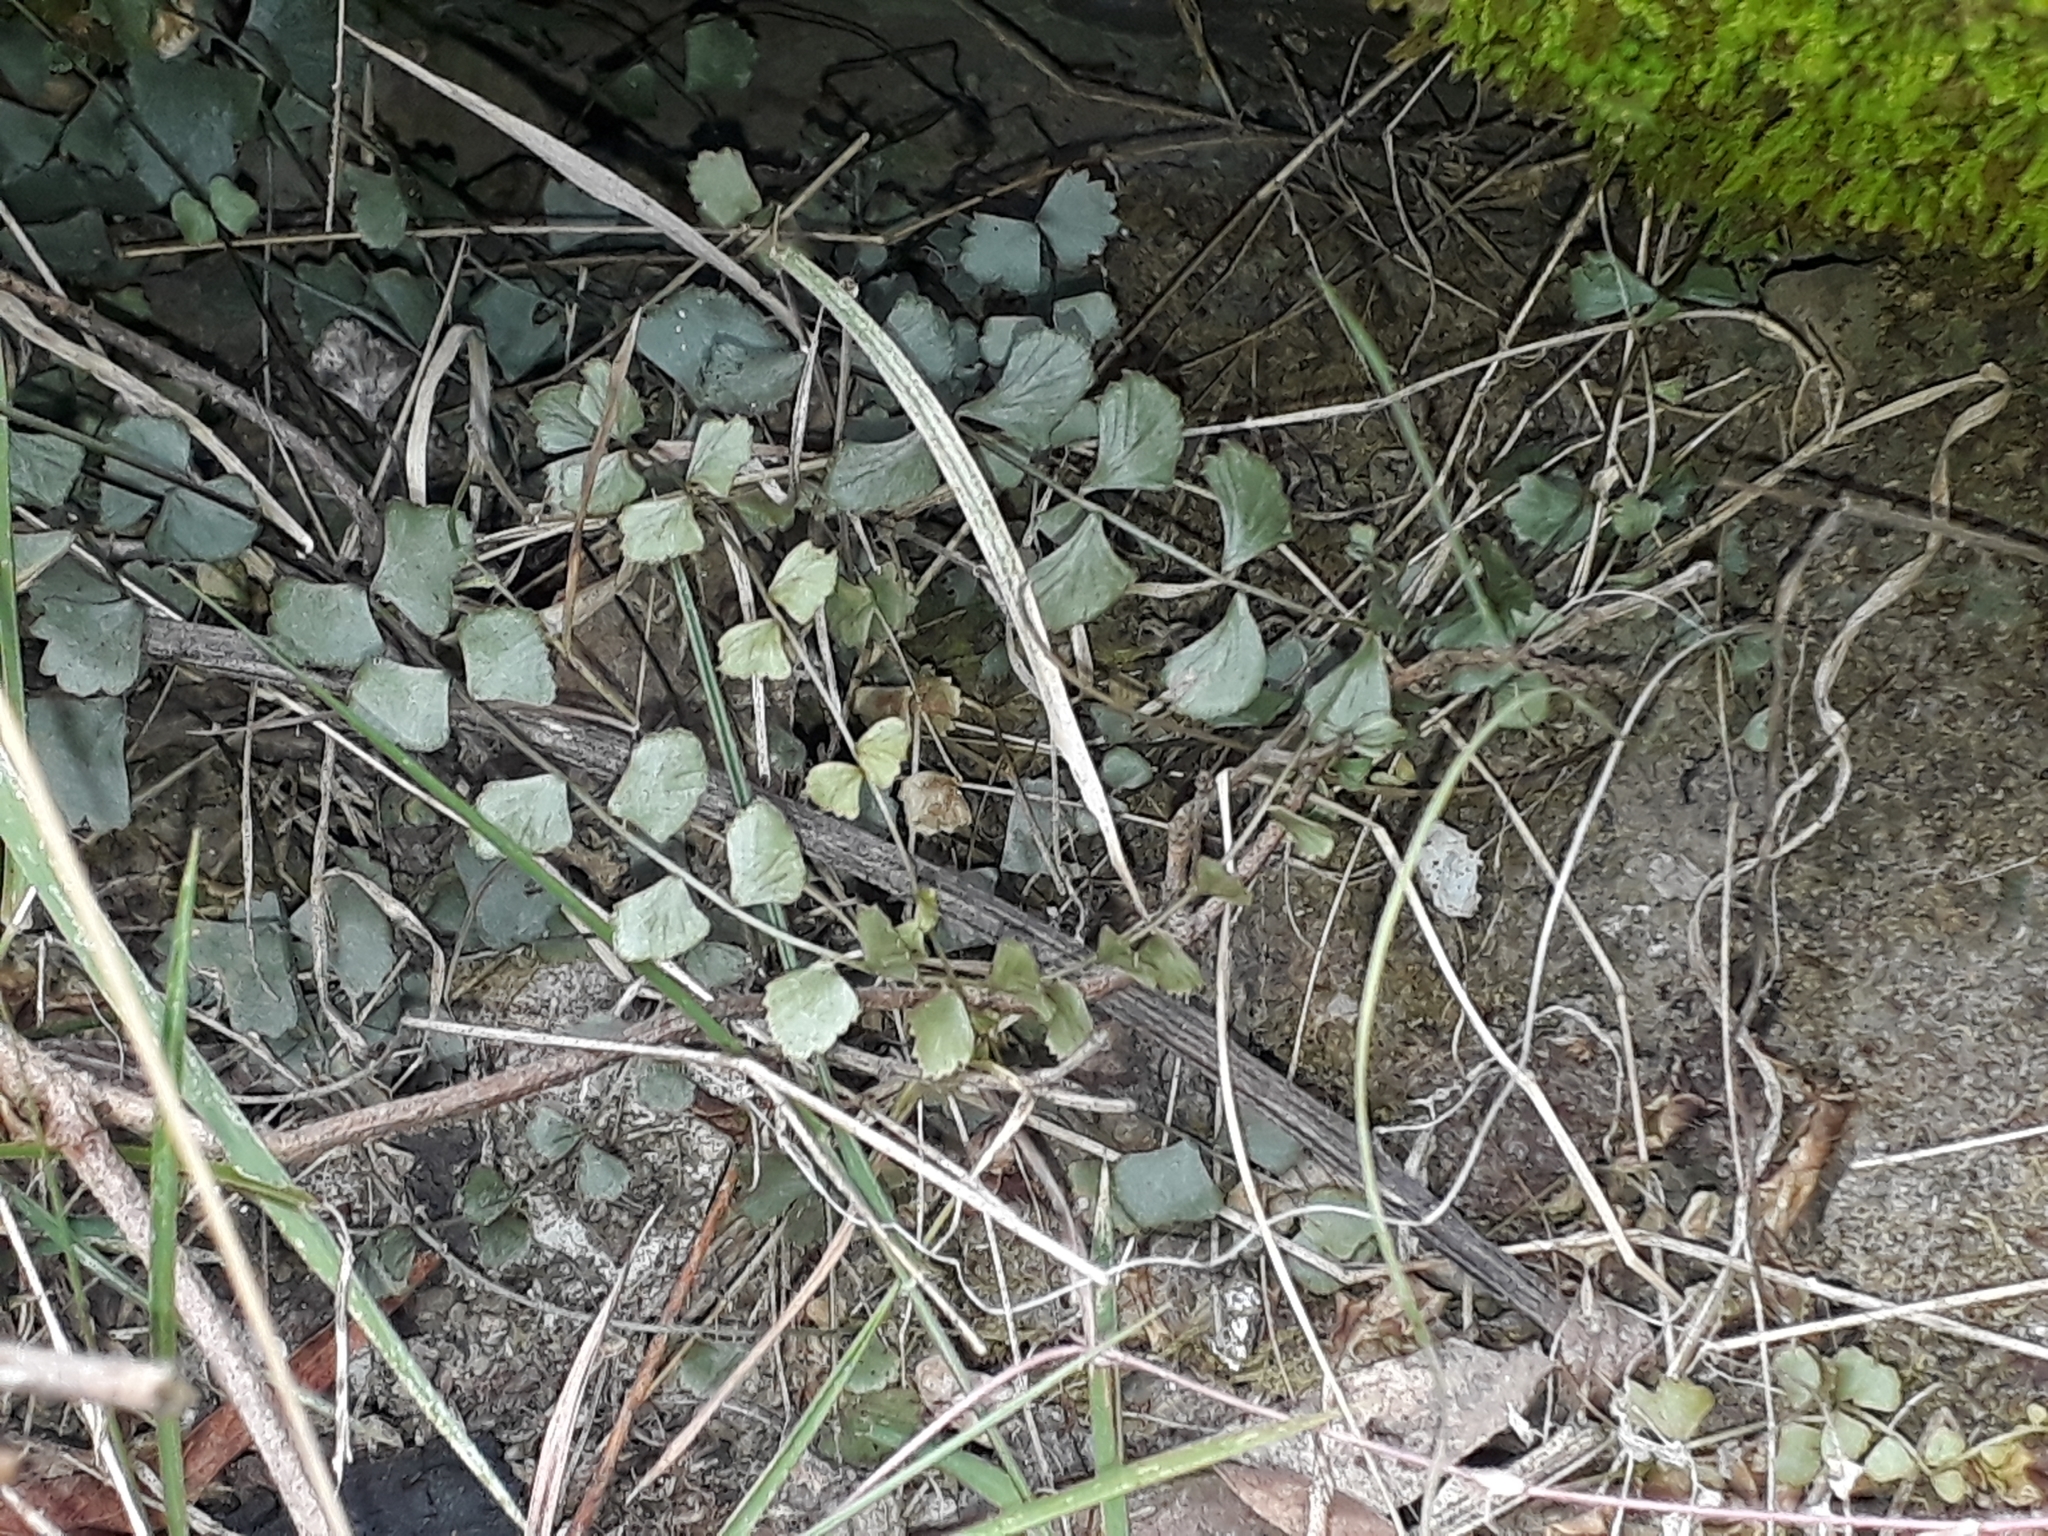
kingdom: Plantae
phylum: Tracheophyta
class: Polypodiopsida
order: Polypodiales
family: Aspleniaceae
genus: Asplenium
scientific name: Asplenium flabellifolium
